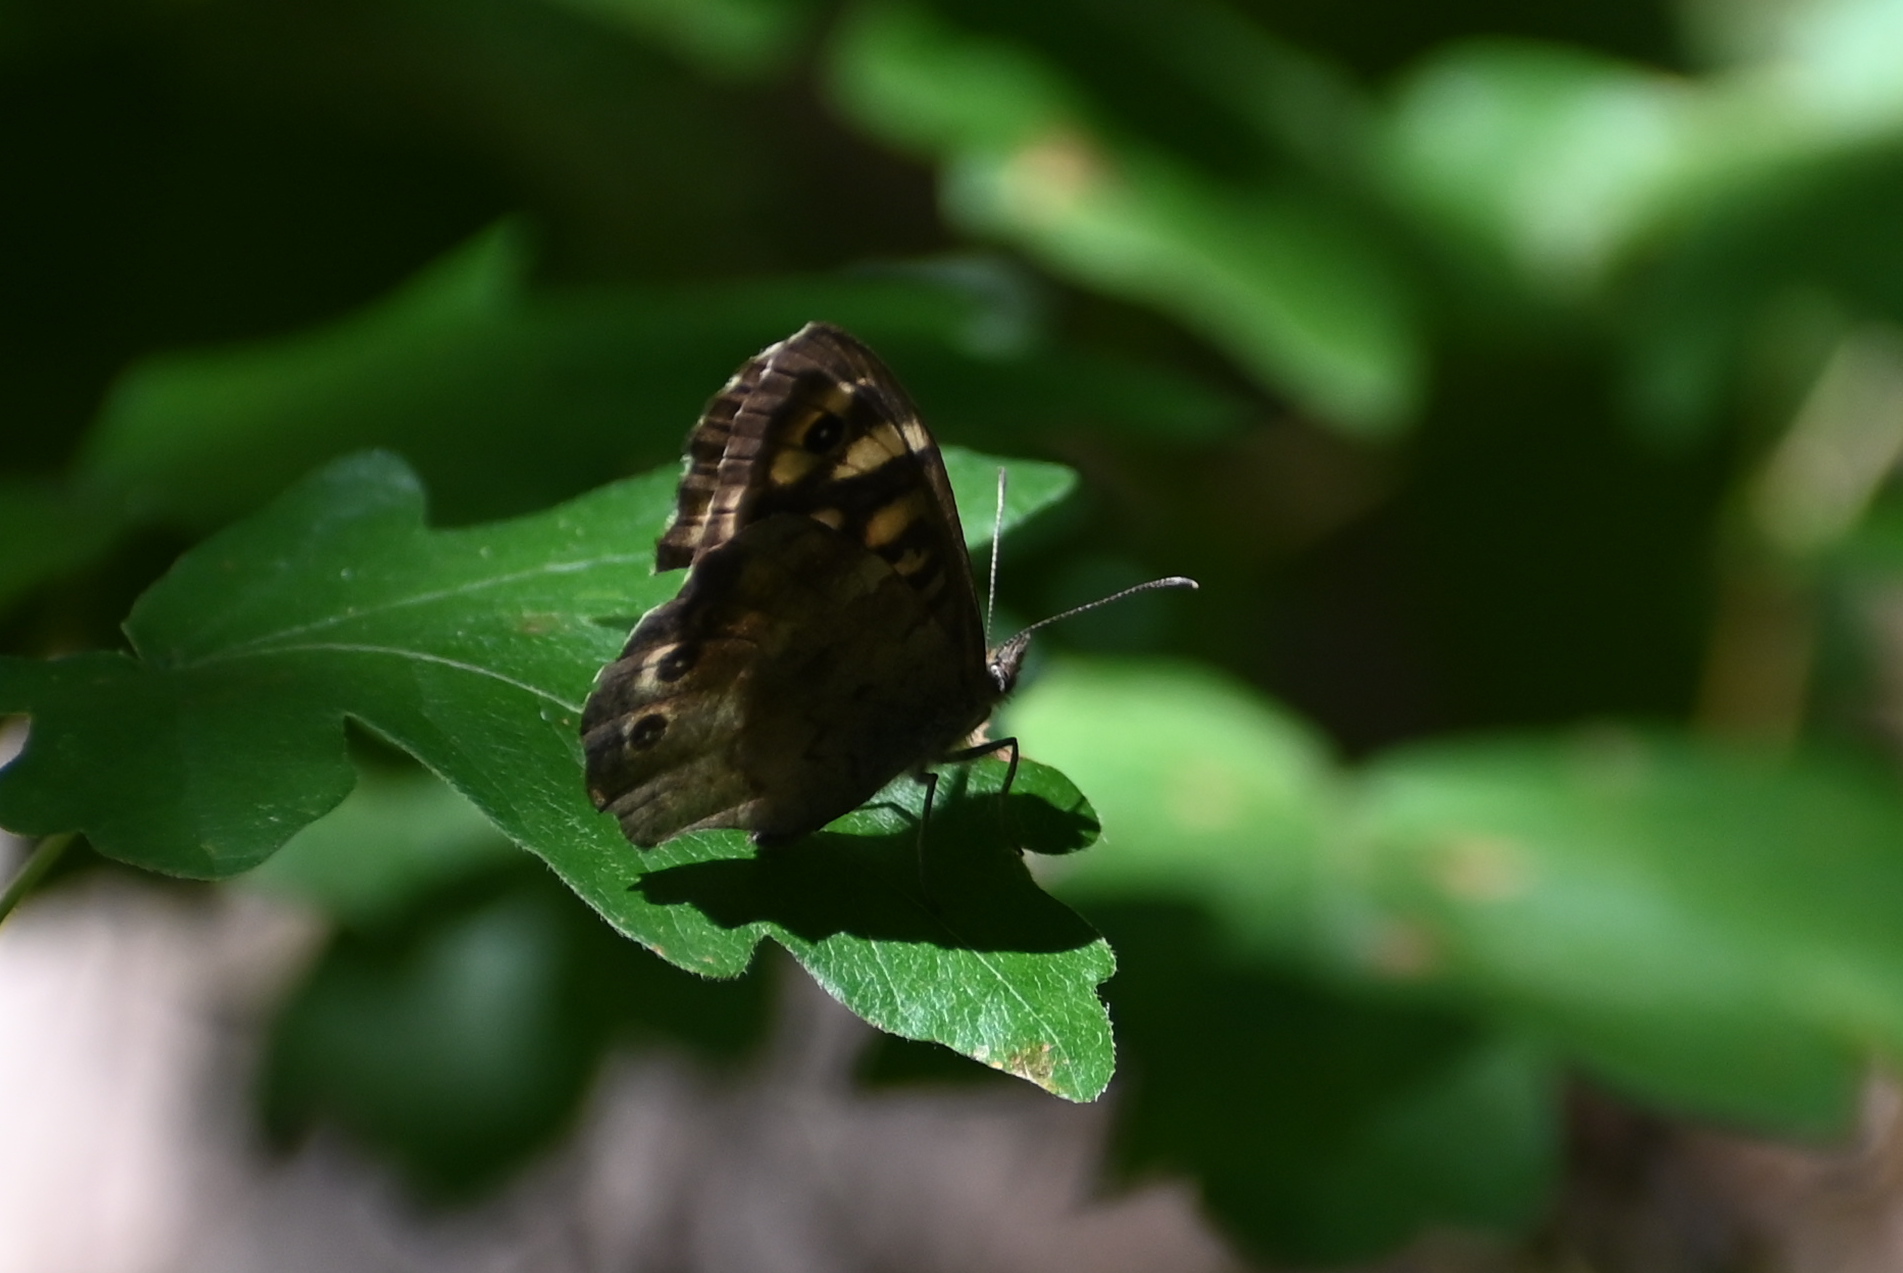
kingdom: Animalia
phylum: Arthropoda
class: Insecta
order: Lepidoptera
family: Nymphalidae
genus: Pararge
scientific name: Pararge aegeria
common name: Speckled wood
